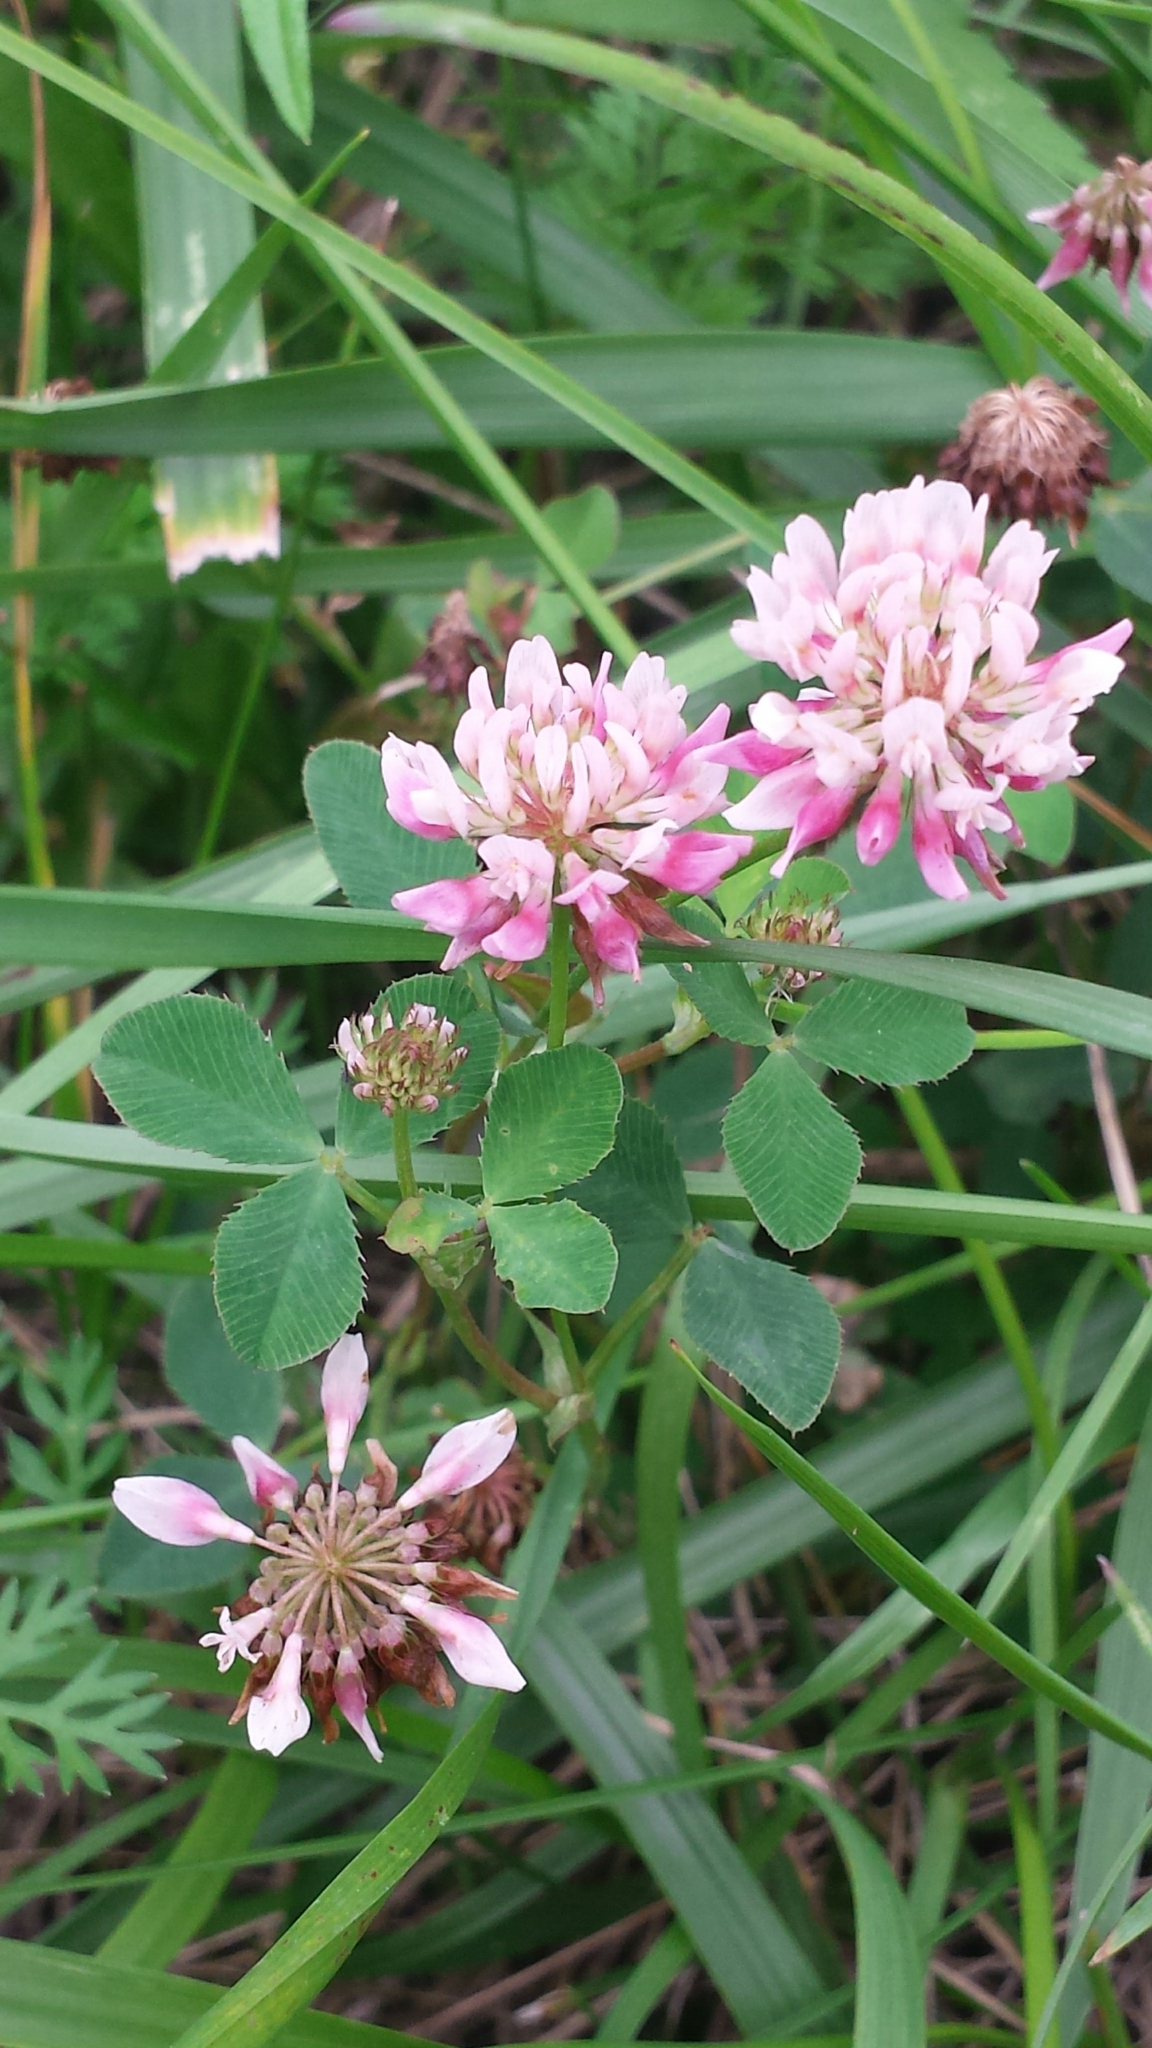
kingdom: Plantae
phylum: Tracheophyta
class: Magnoliopsida
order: Fabales
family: Fabaceae
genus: Trifolium
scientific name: Trifolium hybridum
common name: Alsike clover
